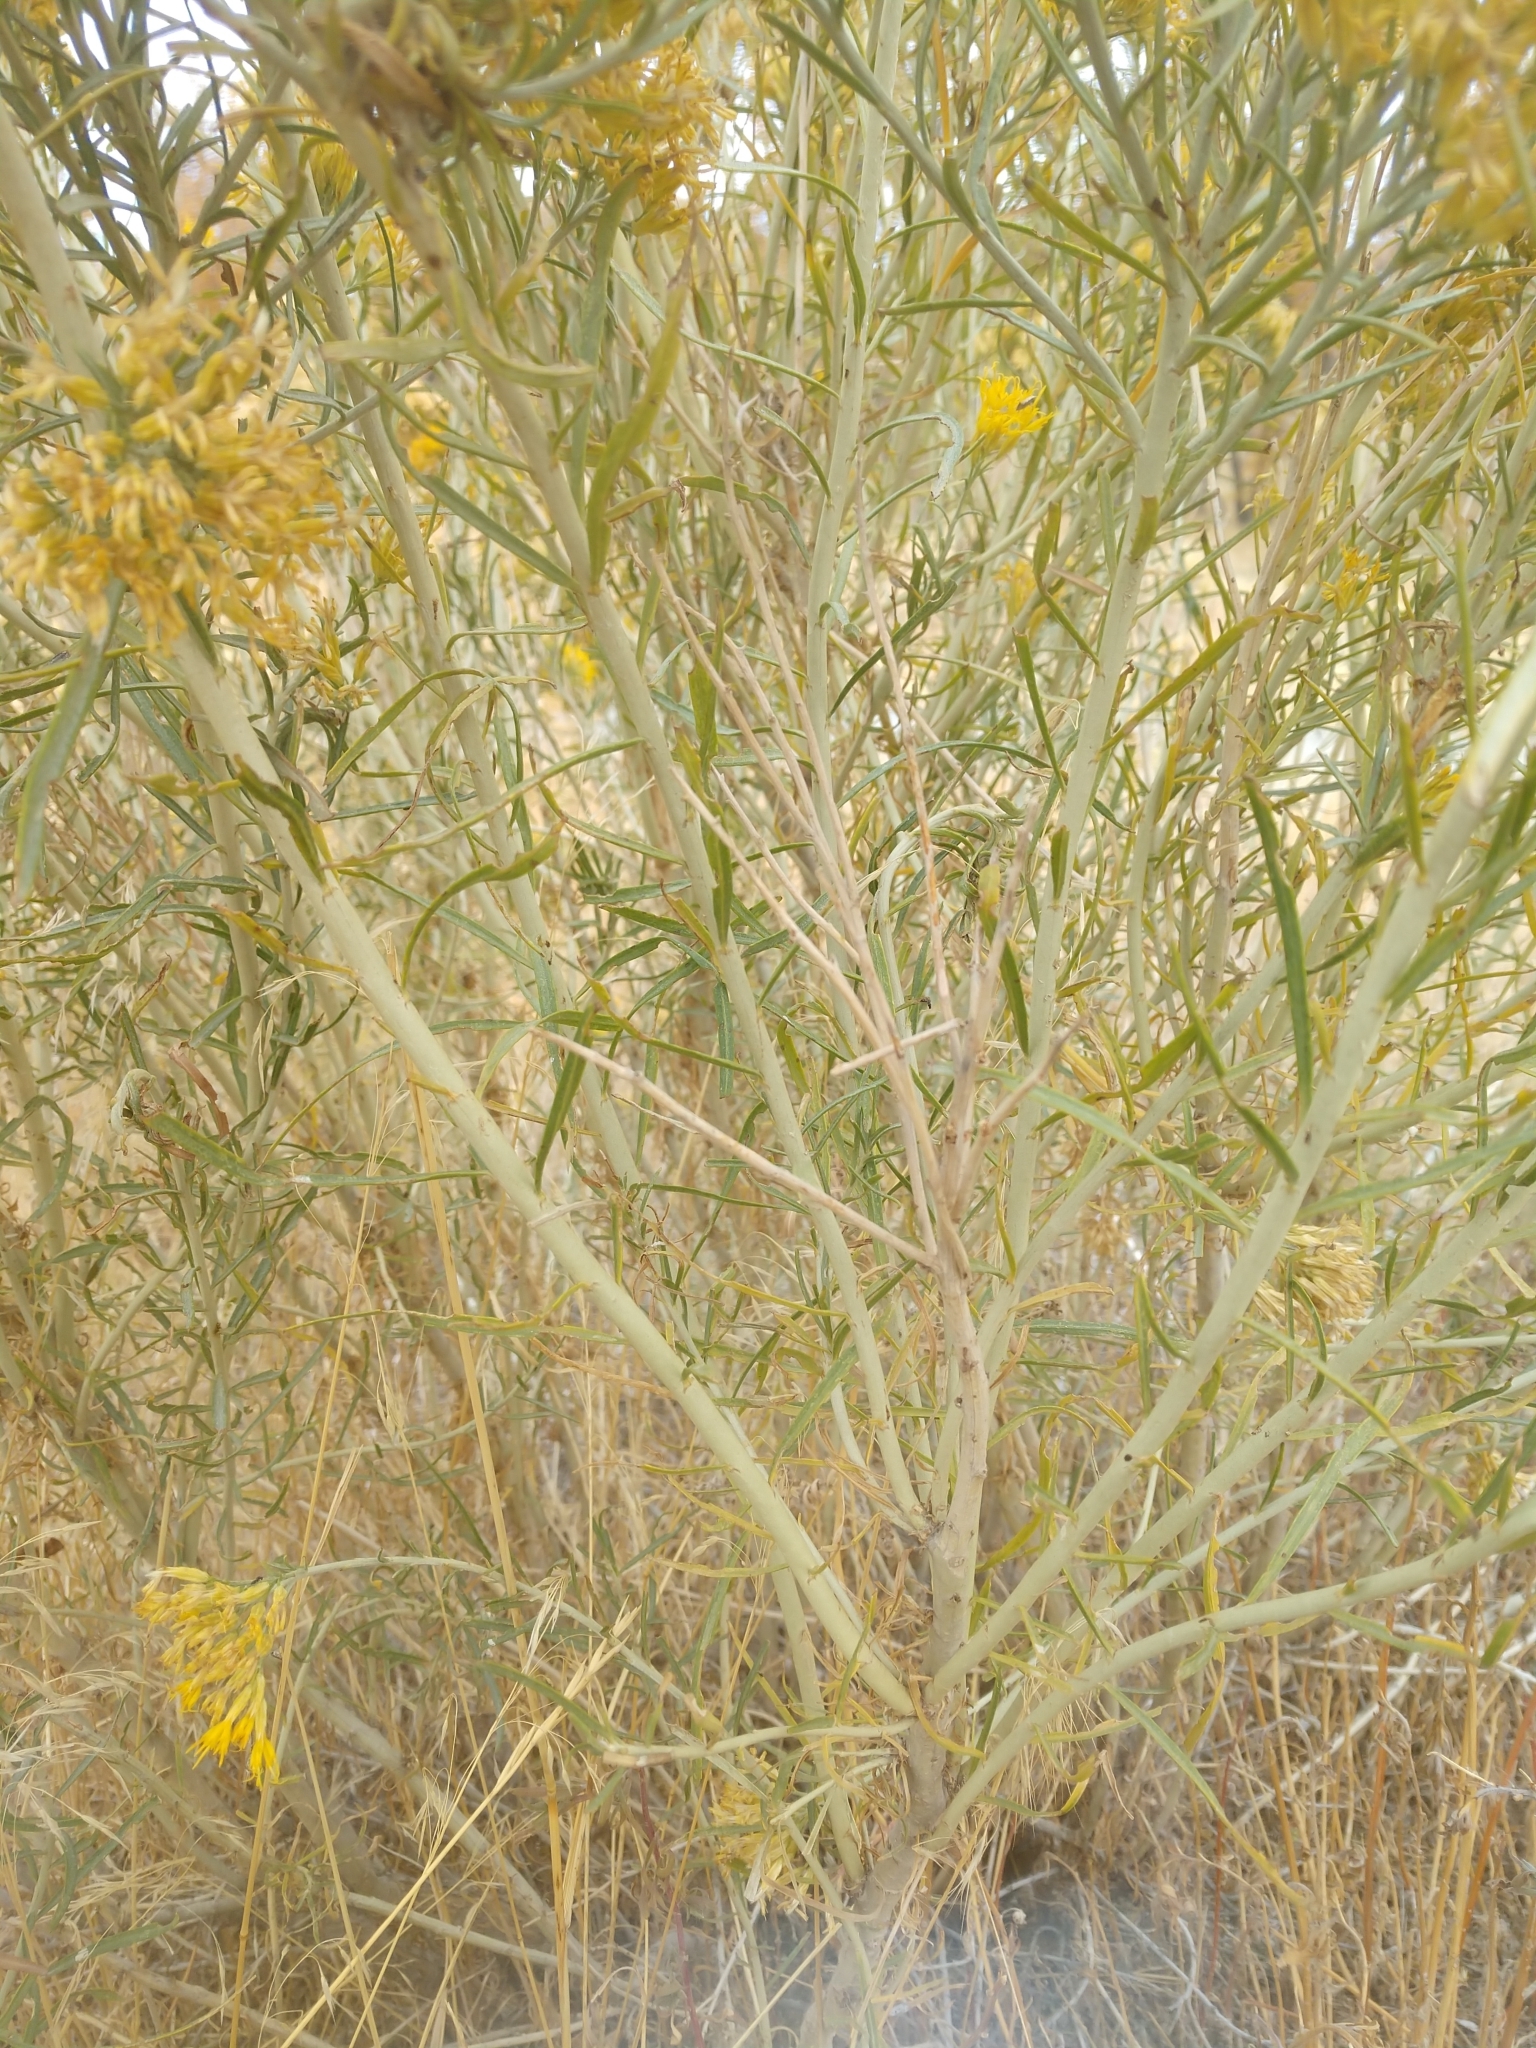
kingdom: Plantae
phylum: Tracheophyta
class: Magnoliopsida
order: Asterales
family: Asteraceae
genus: Ericameria
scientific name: Ericameria nauseosa
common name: Rubber rabbitbrush
